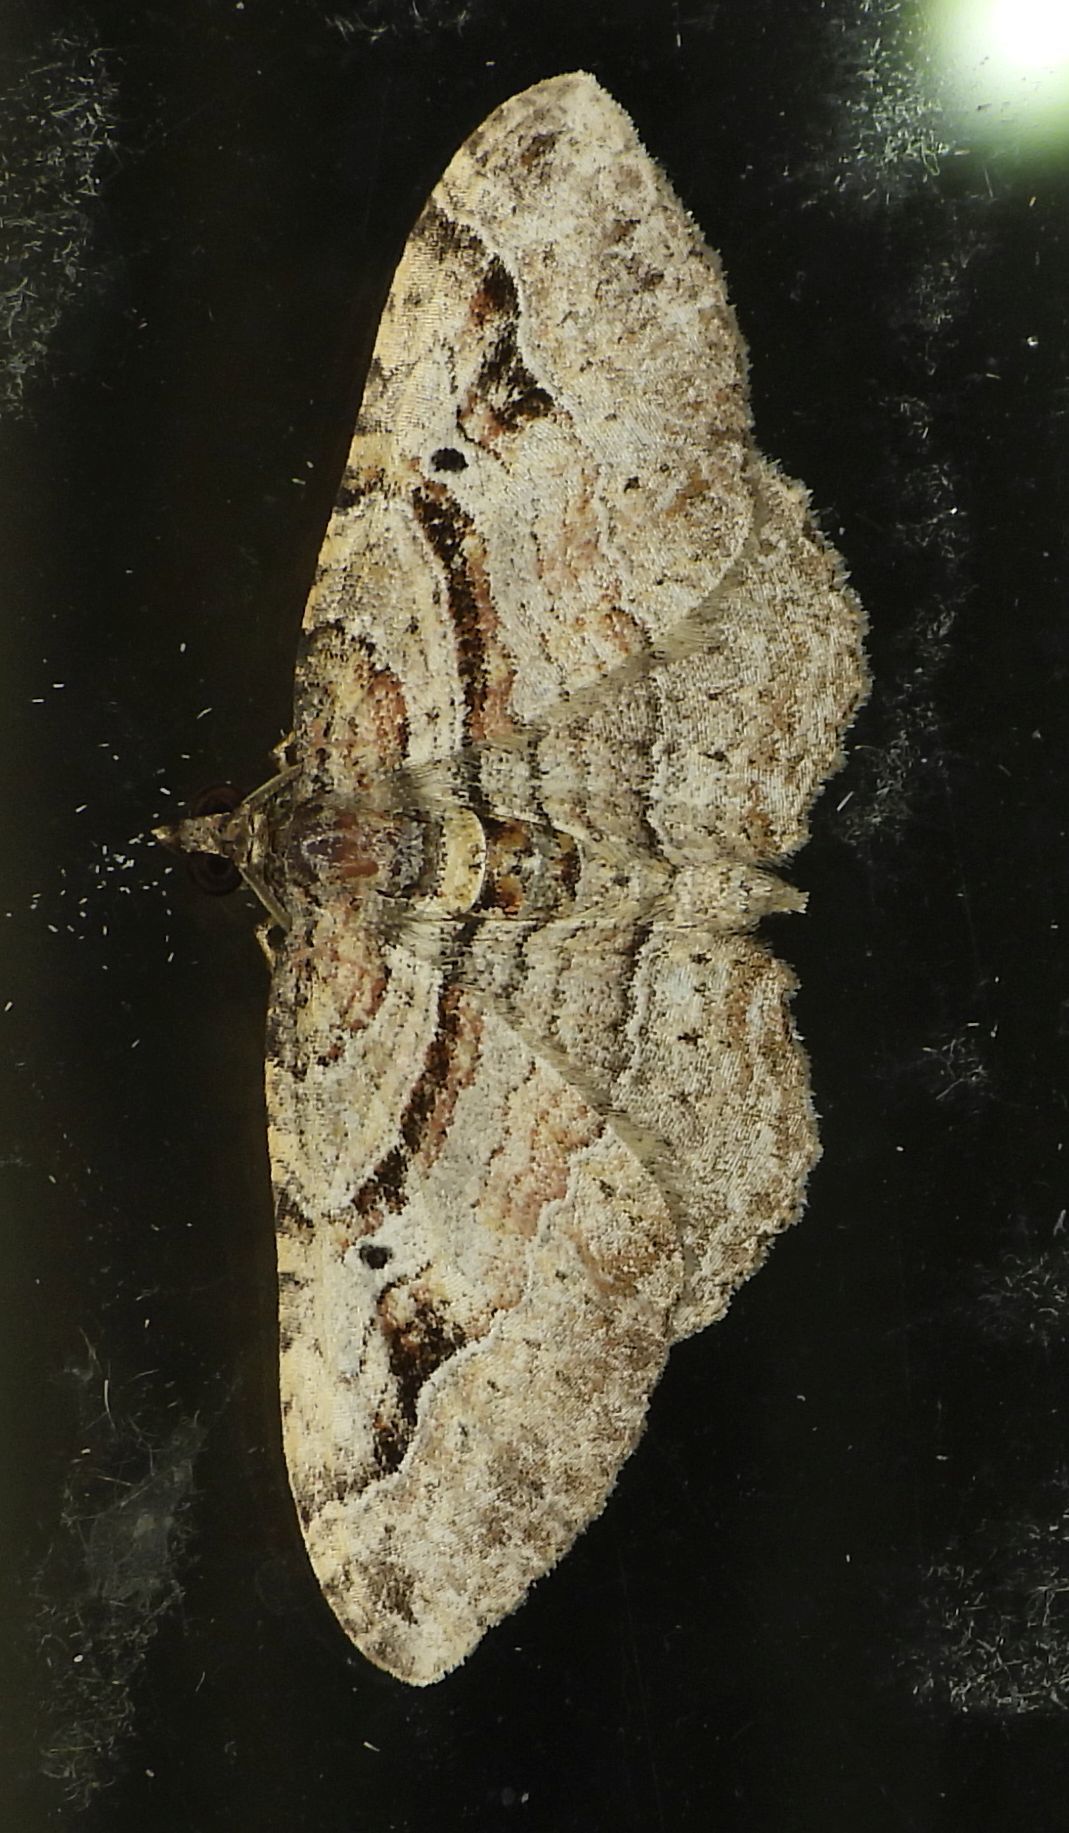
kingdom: Animalia
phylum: Arthropoda
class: Insecta
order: Lepidoptera
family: Geometridae
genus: Costaconvexa
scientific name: Costaconvexa centrostrigaria
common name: Bent-line carpet
